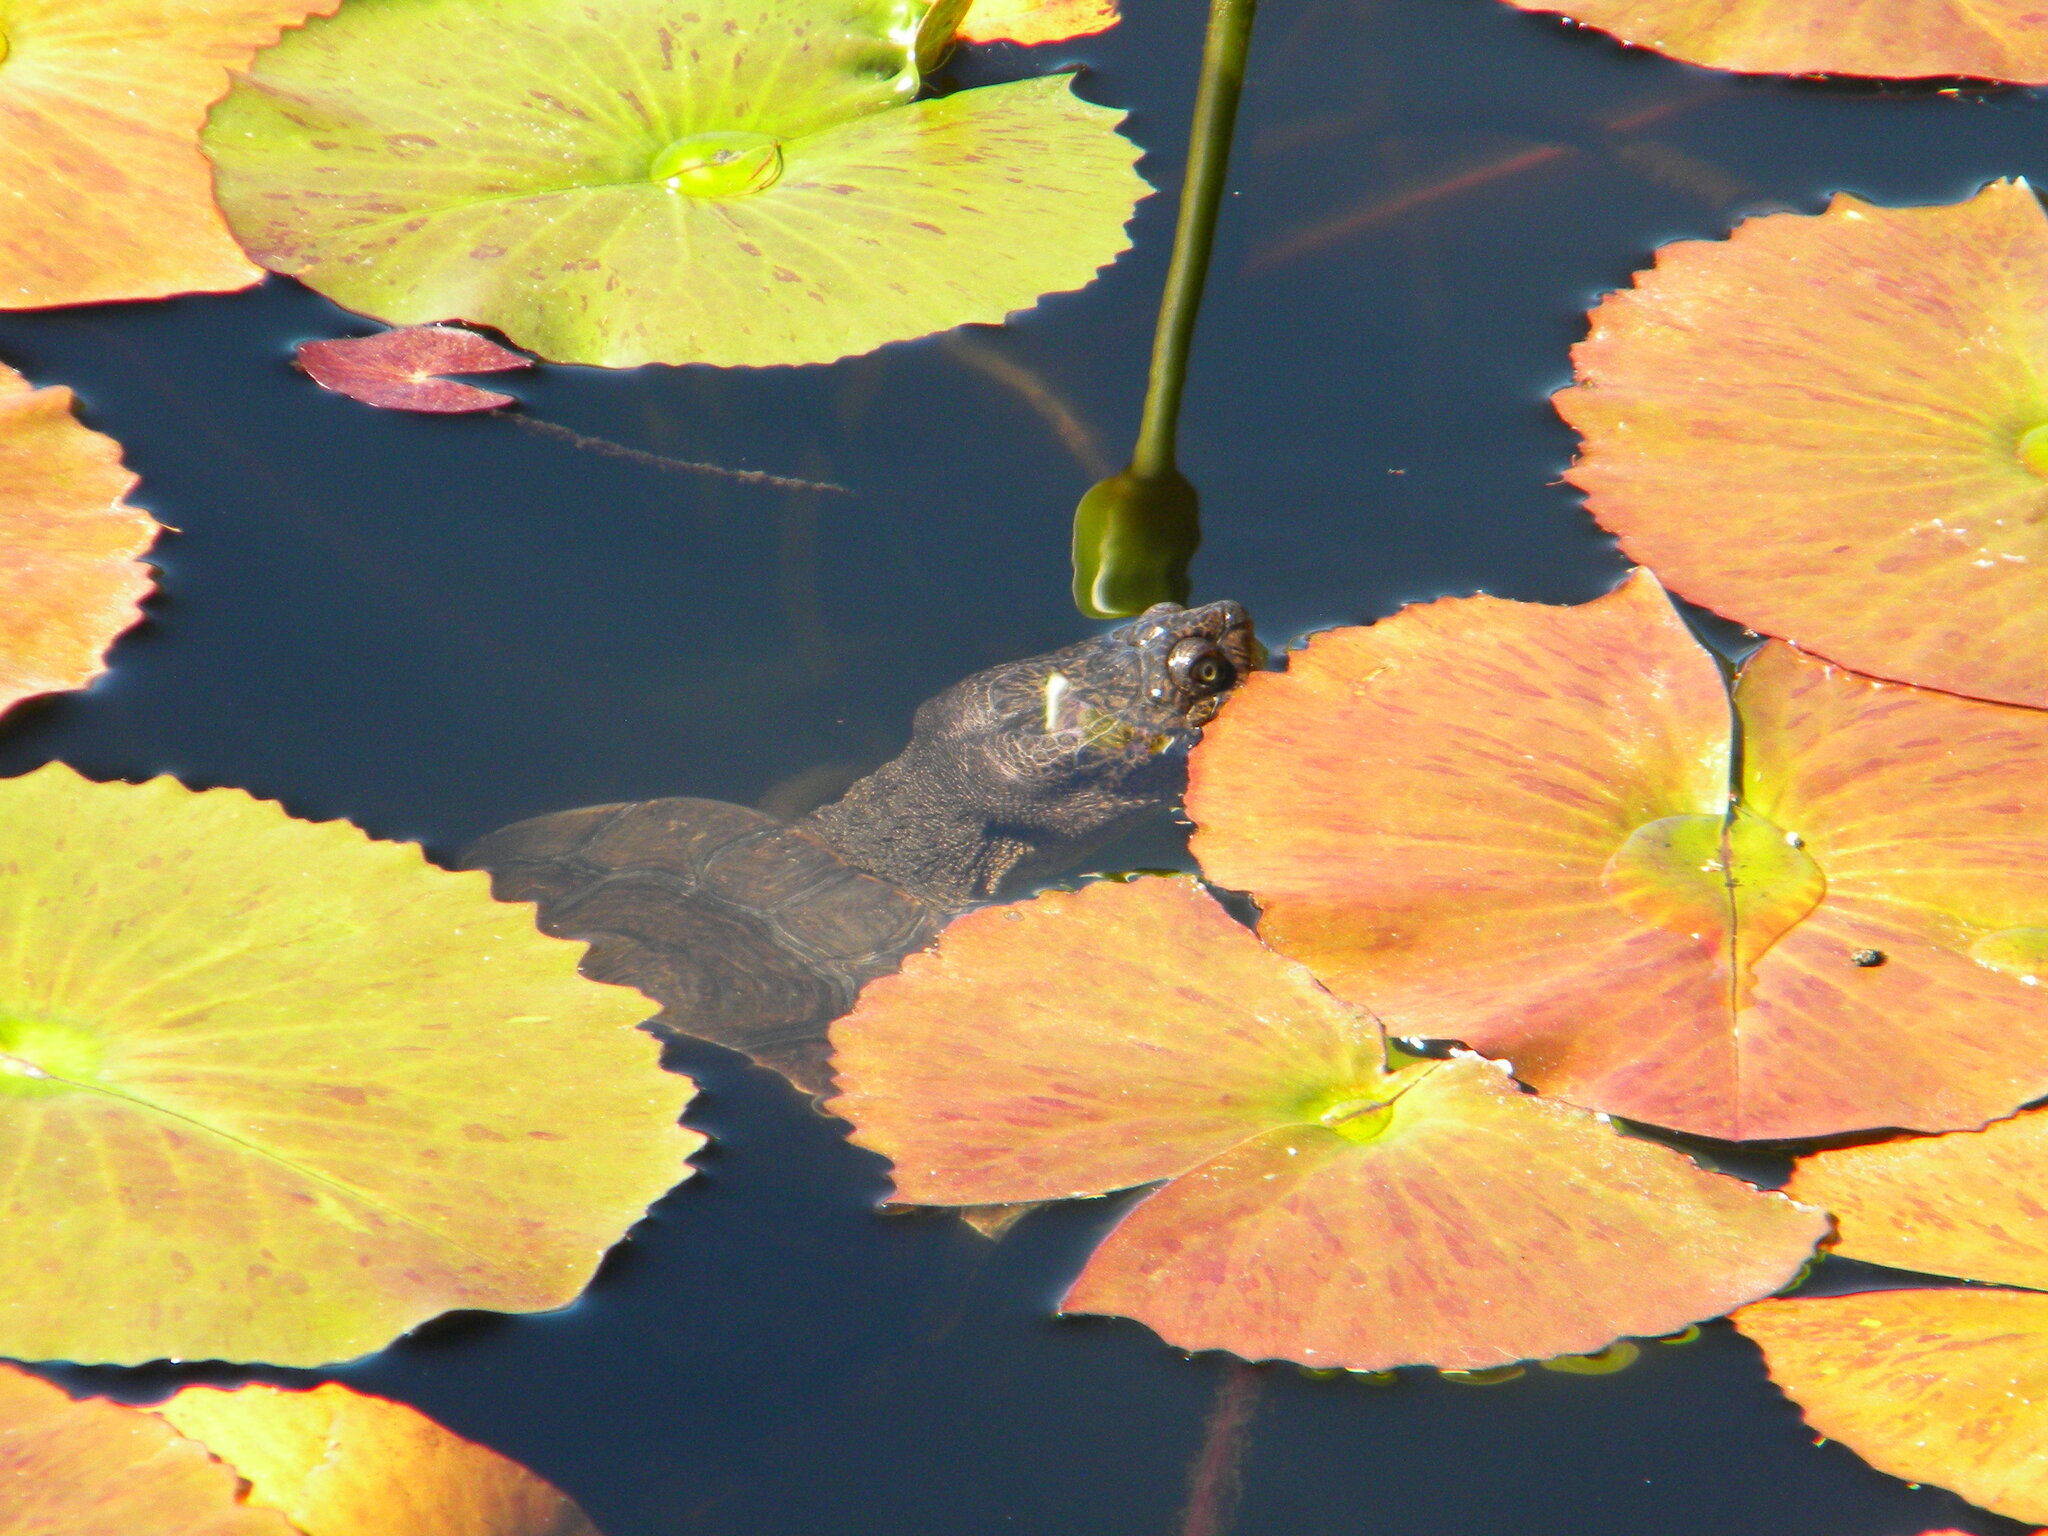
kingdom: Animalia
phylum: Chordata
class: Testudines
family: Pelomedusidae
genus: Pelomedusa
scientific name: Pelomedusa galeata
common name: South african helmeted terrapin
